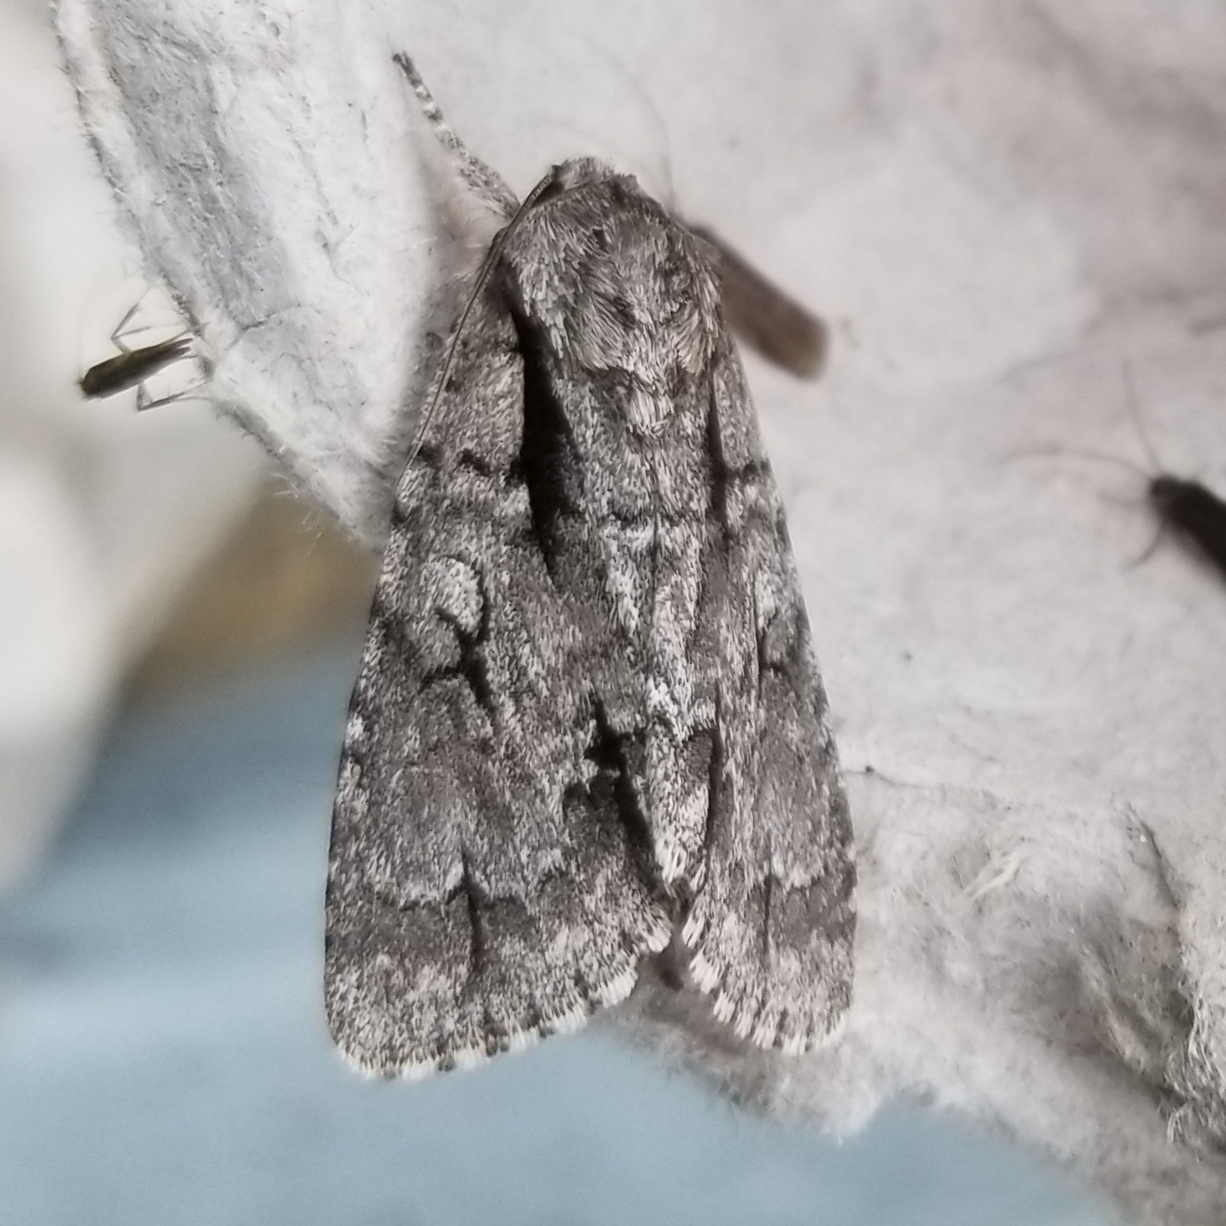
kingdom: Animalia
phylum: Arthropoda
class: Insecta
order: Lepidoptera
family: Noctuidae
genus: Acronicta
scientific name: Acronicta hasta
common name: Cherry dagger
